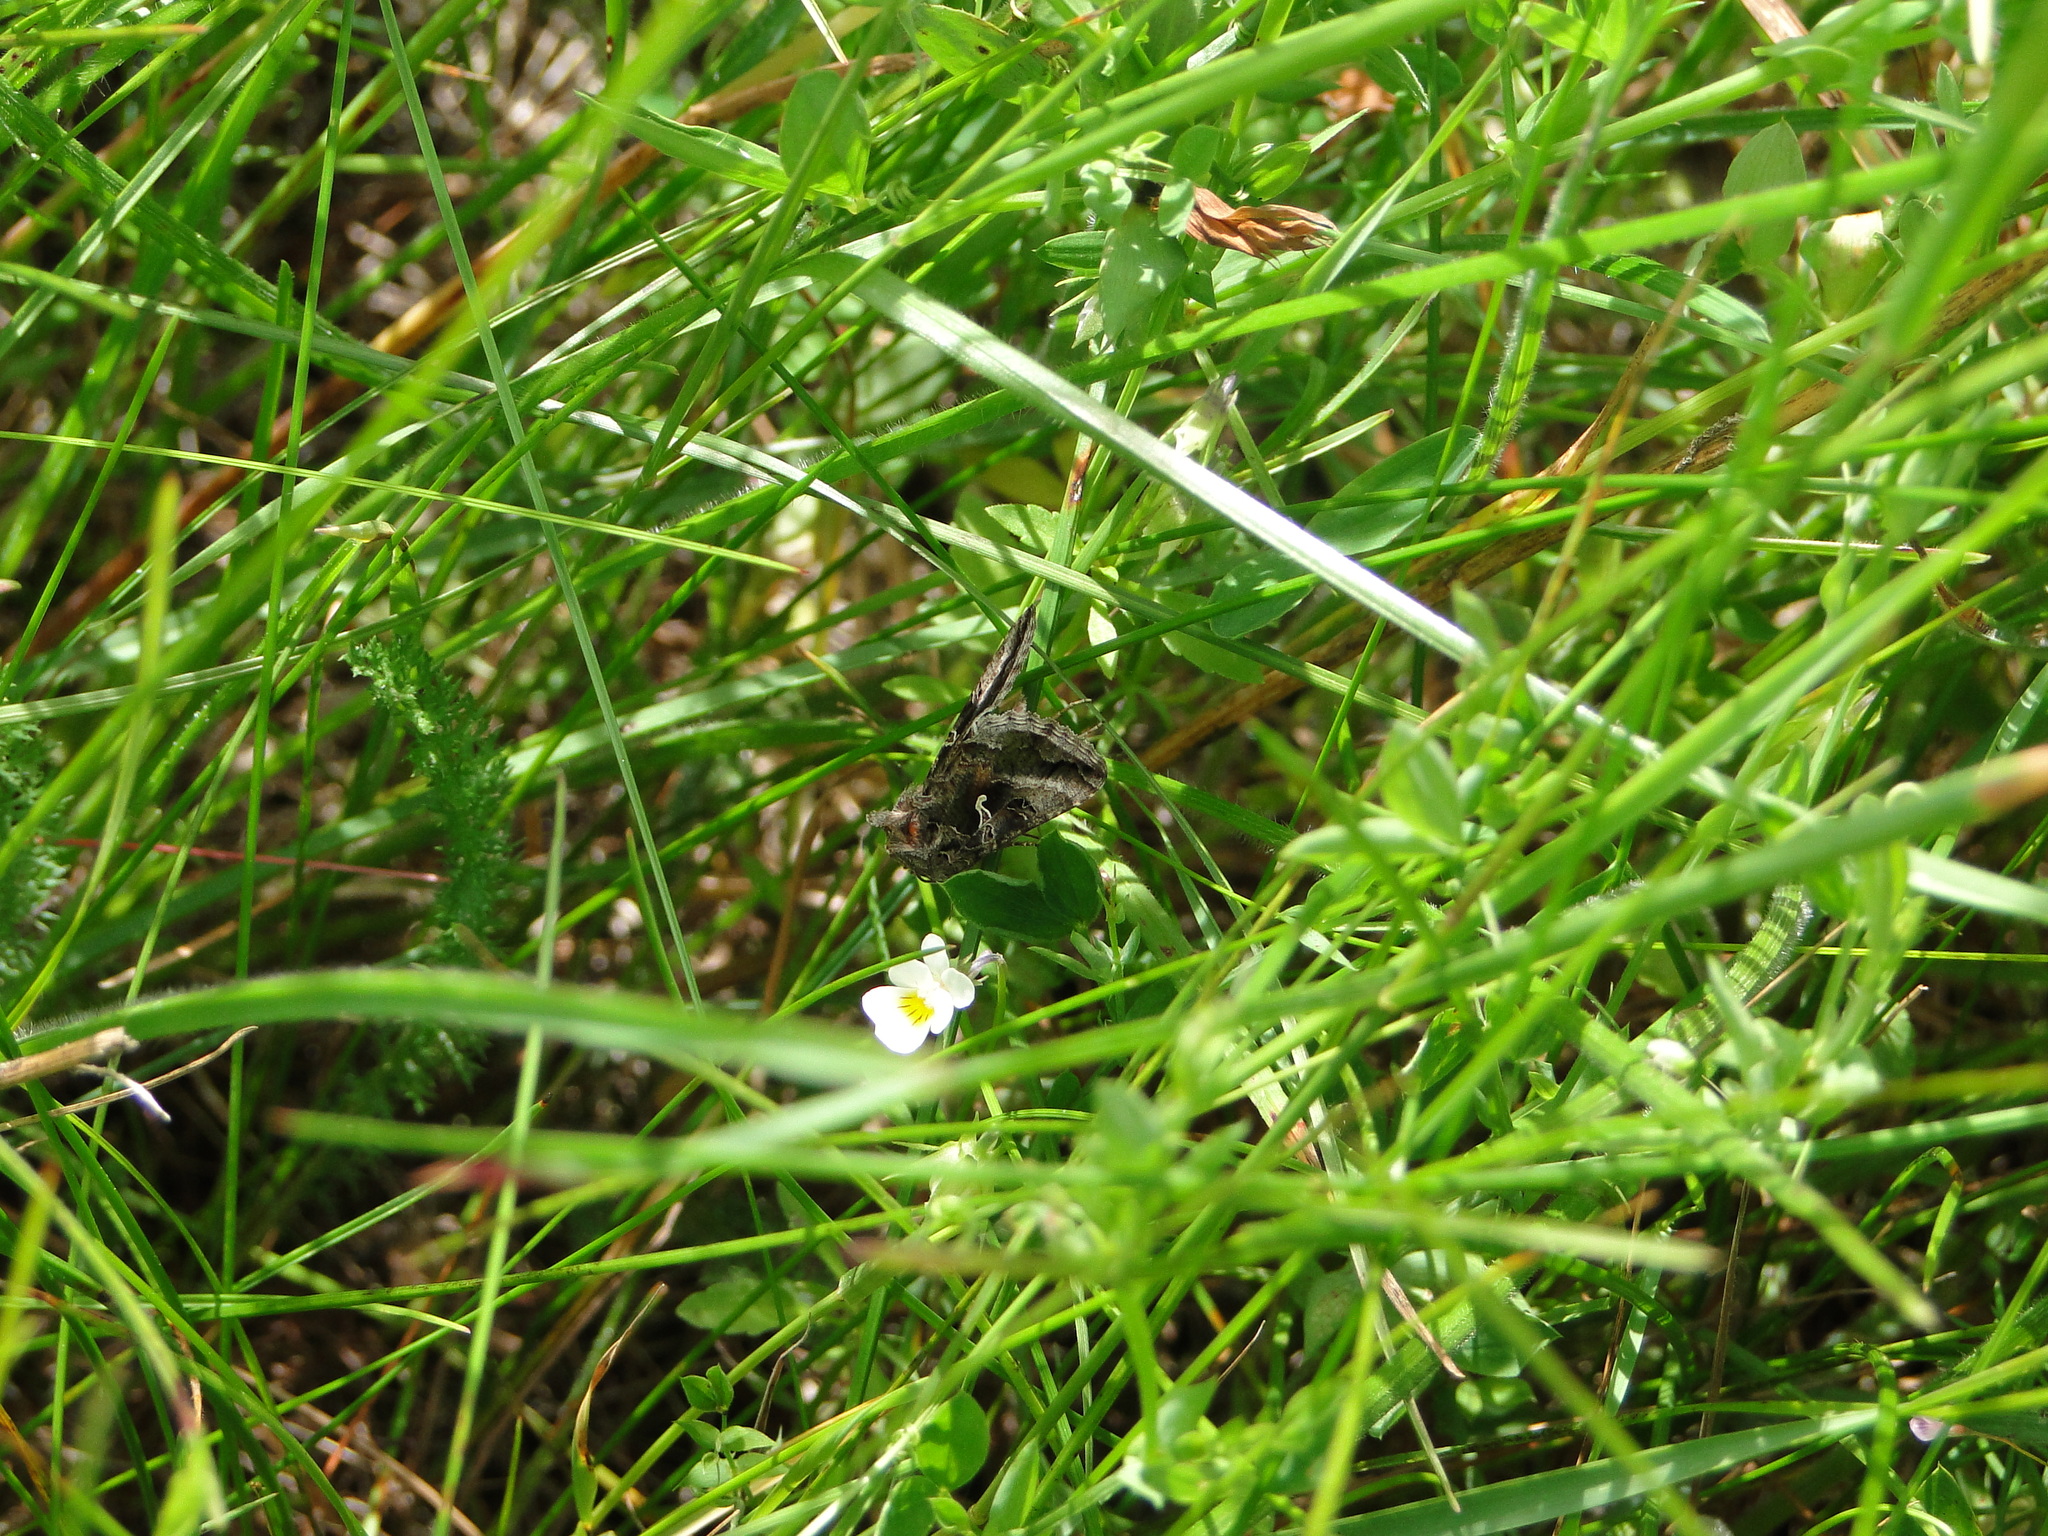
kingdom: Animalia
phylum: Arthropoda
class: Insecta
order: Lepidoptera
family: Noctuidae
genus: Autographa
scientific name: Autographa gamma
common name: Silver y
